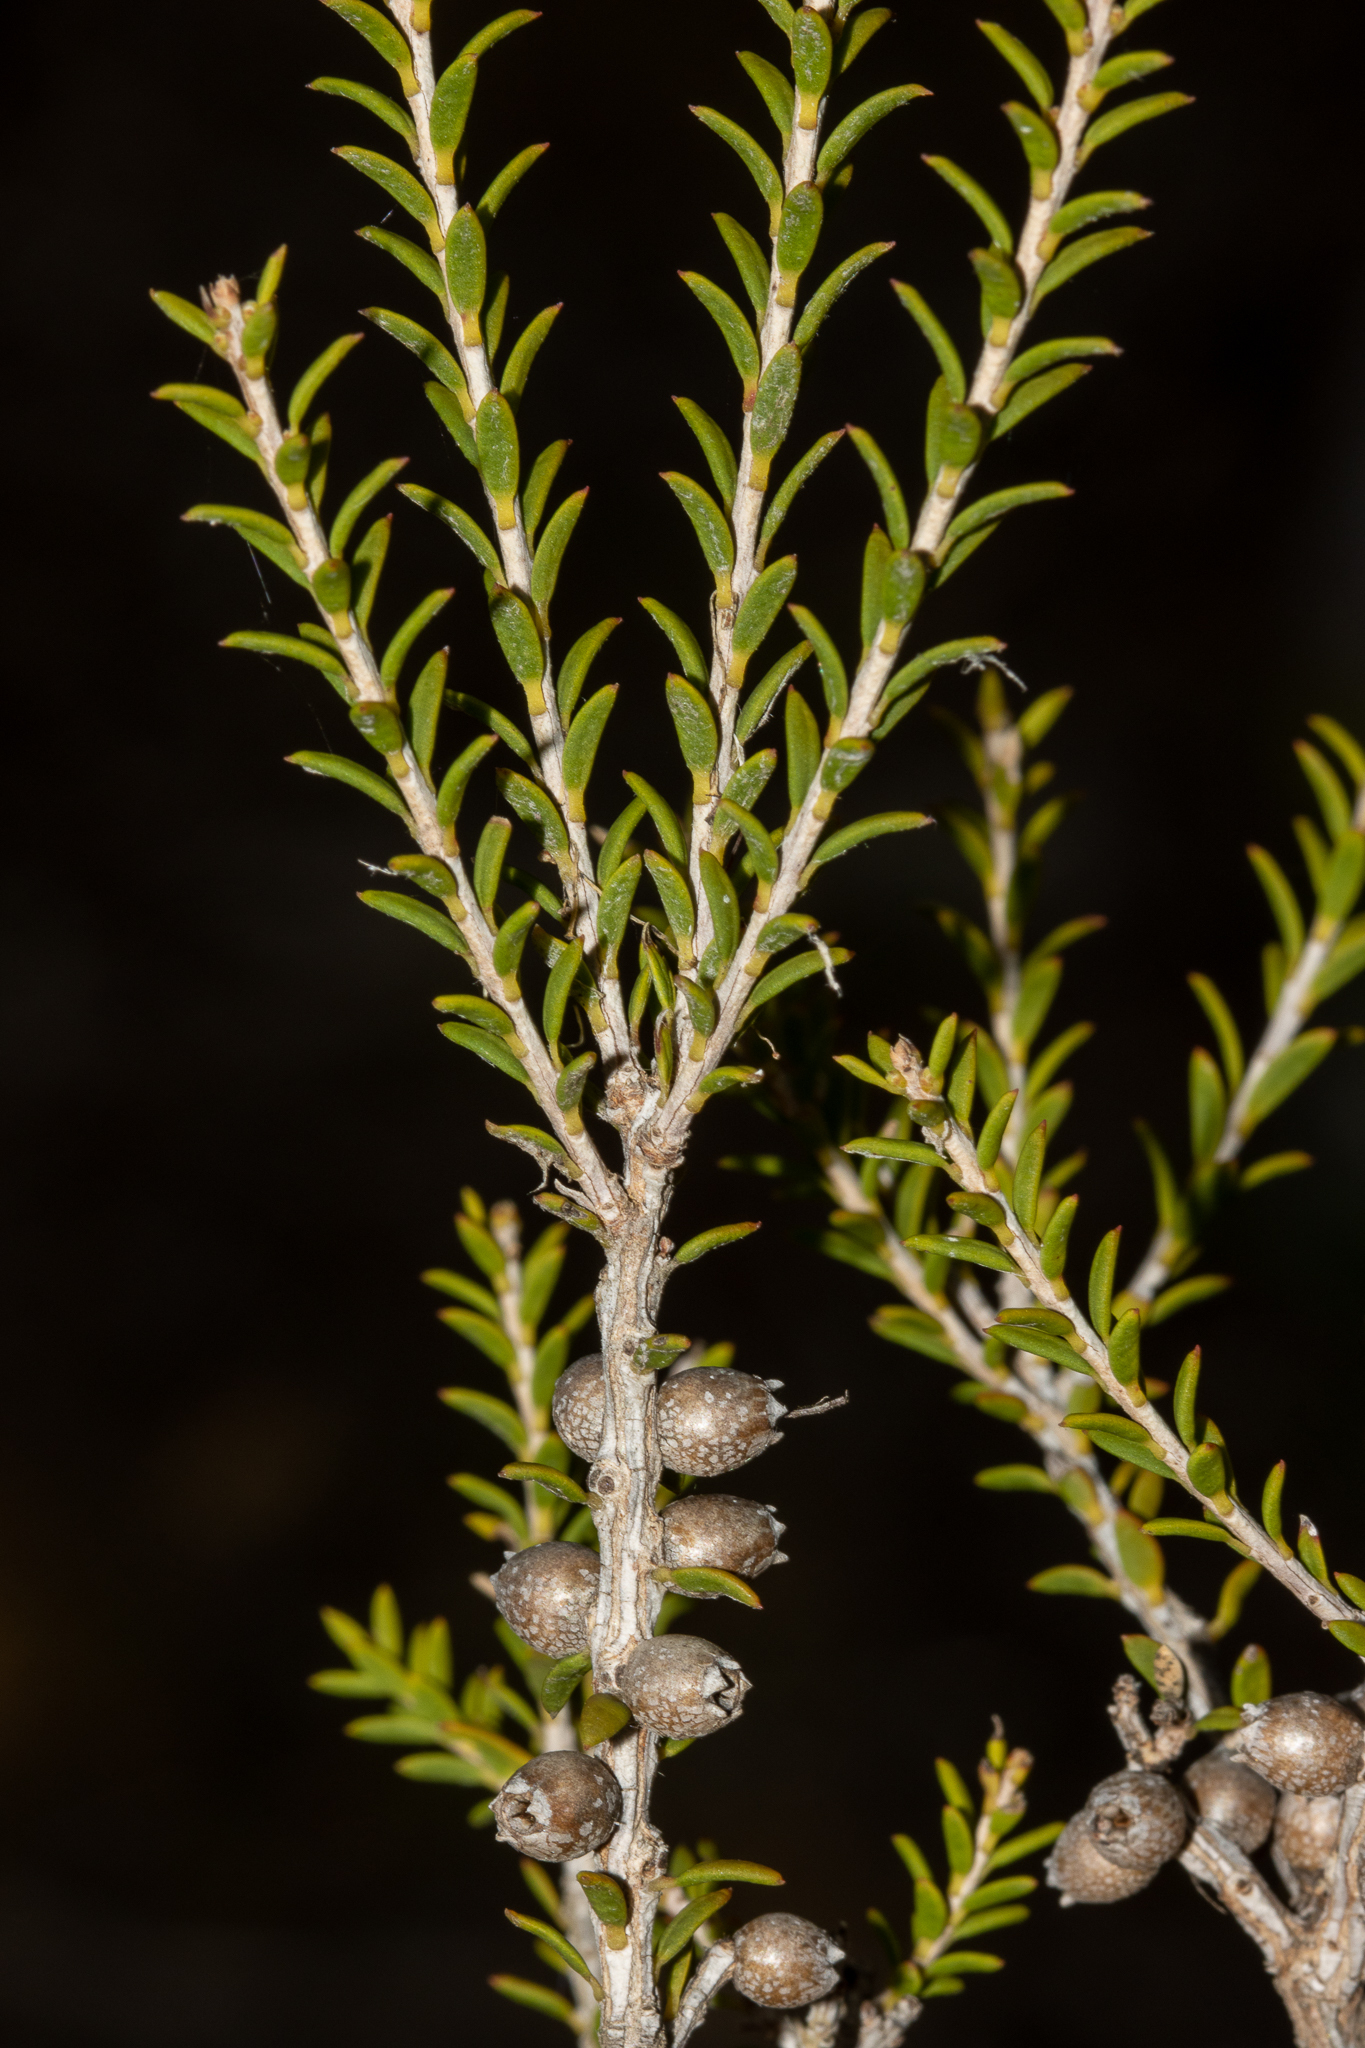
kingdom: Plantae
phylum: Tracheophyta
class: Magnoliopsida
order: Myrtales
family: Myrtaceae
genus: Melaleuca
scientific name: Melaleuca lanceolata
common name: Rottnest island teatree
